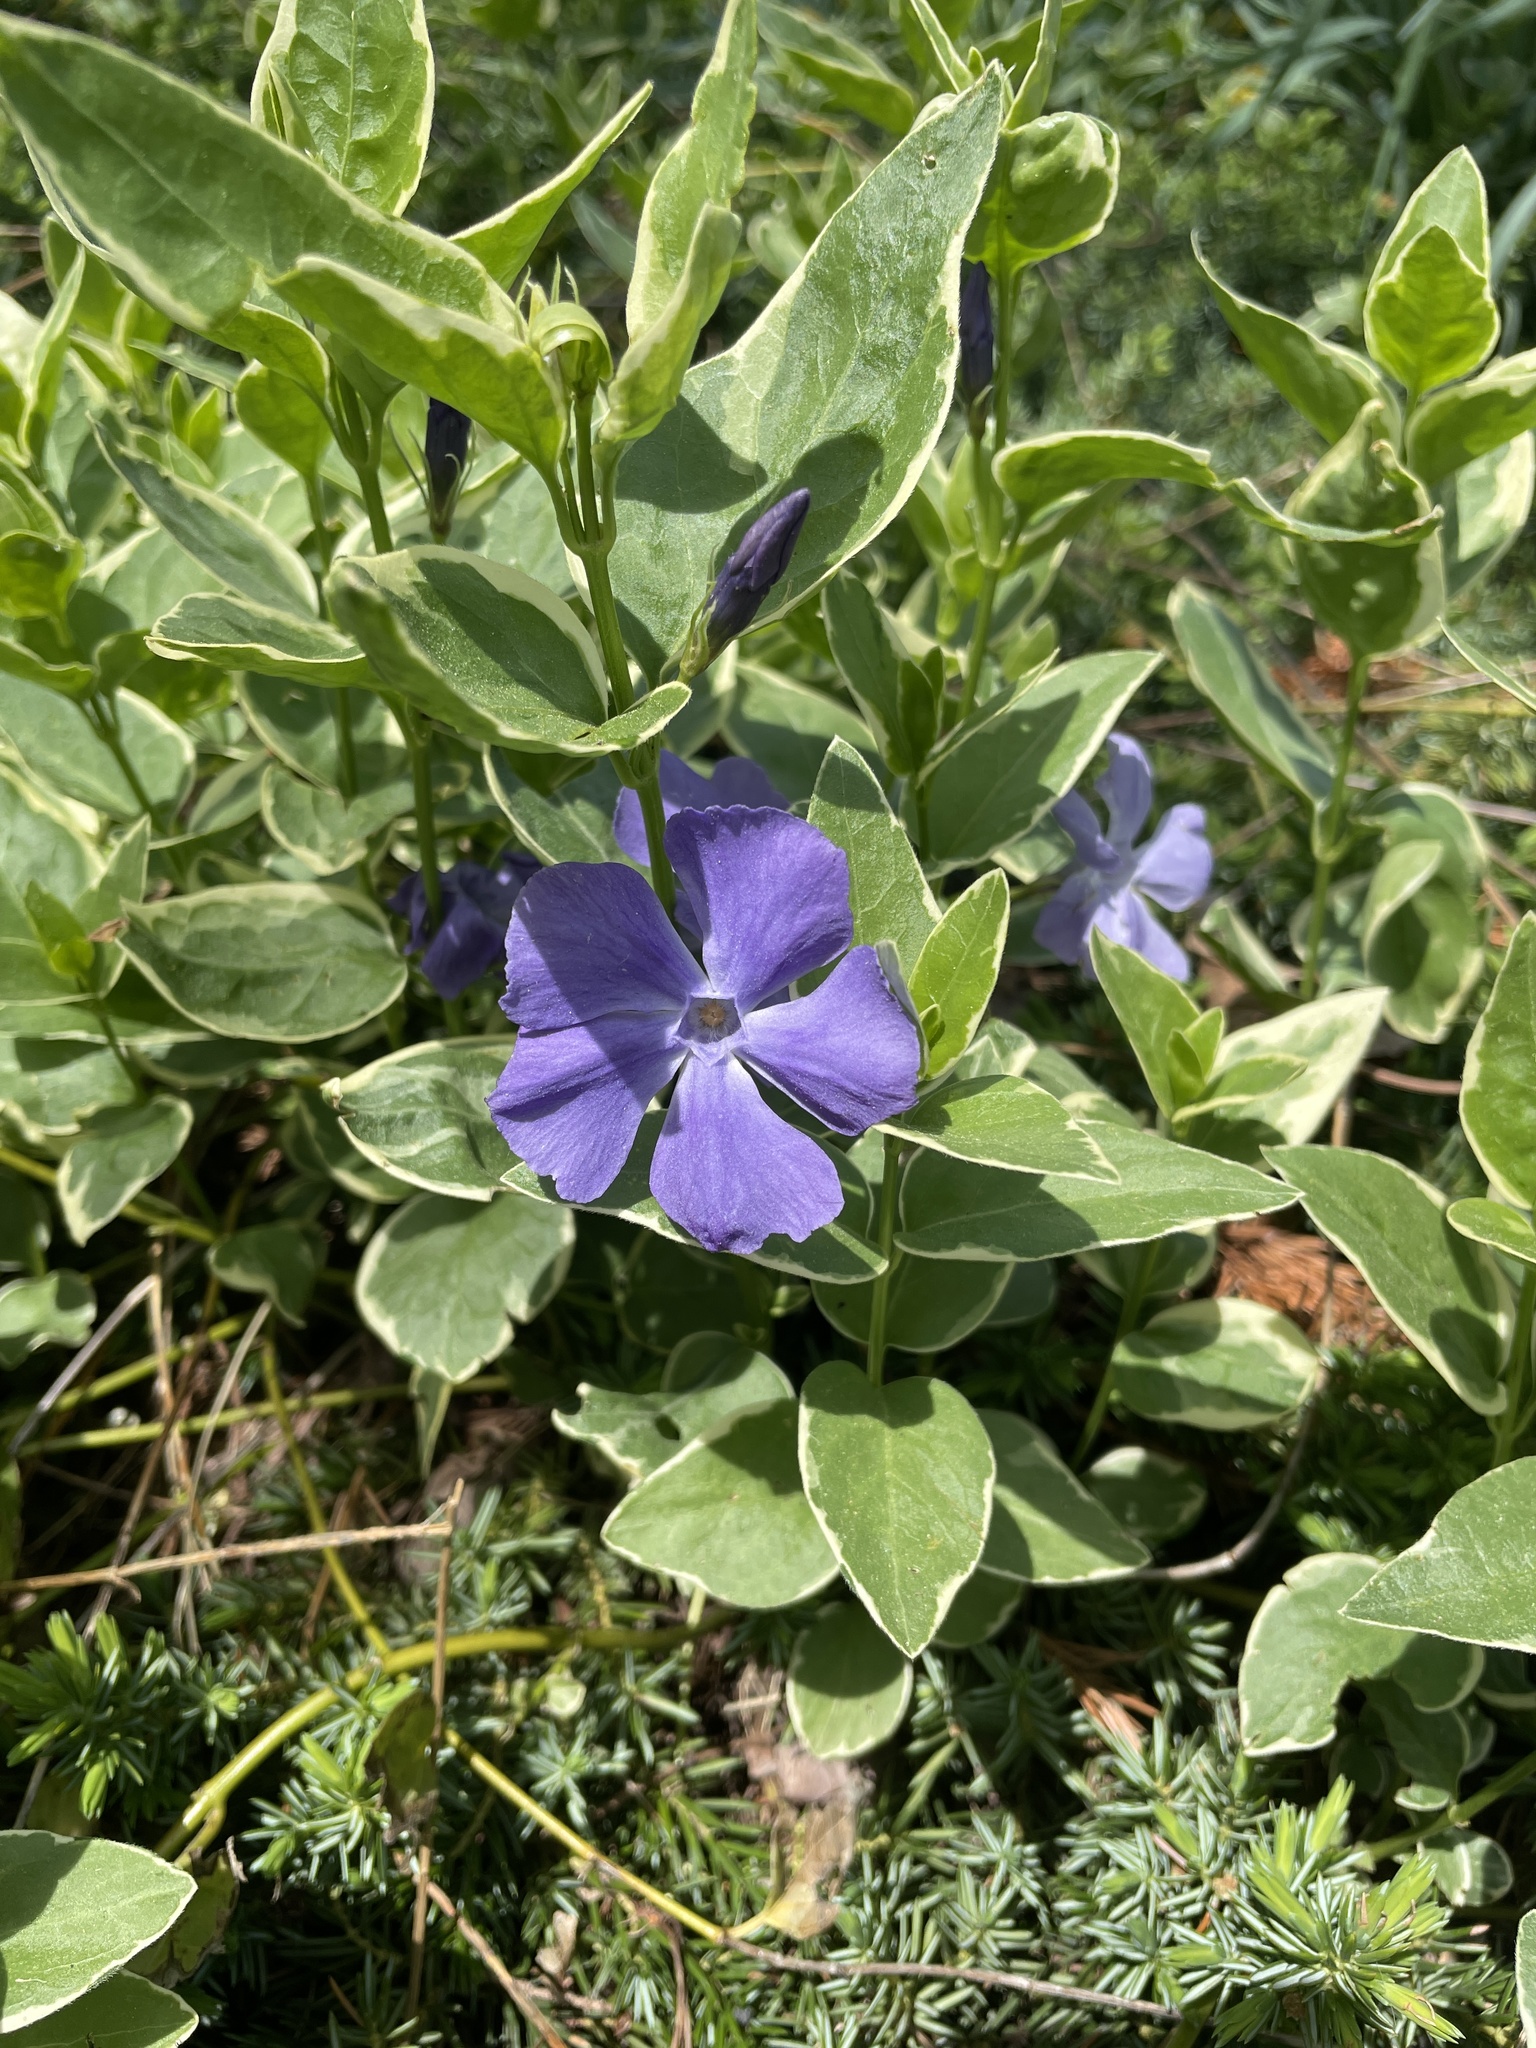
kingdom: Plantae
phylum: Tracheophyta
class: Magnoliopsida
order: Gentianales
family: Apocynaceae
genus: Vinca
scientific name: Vinca major
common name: Greater periwinkle
